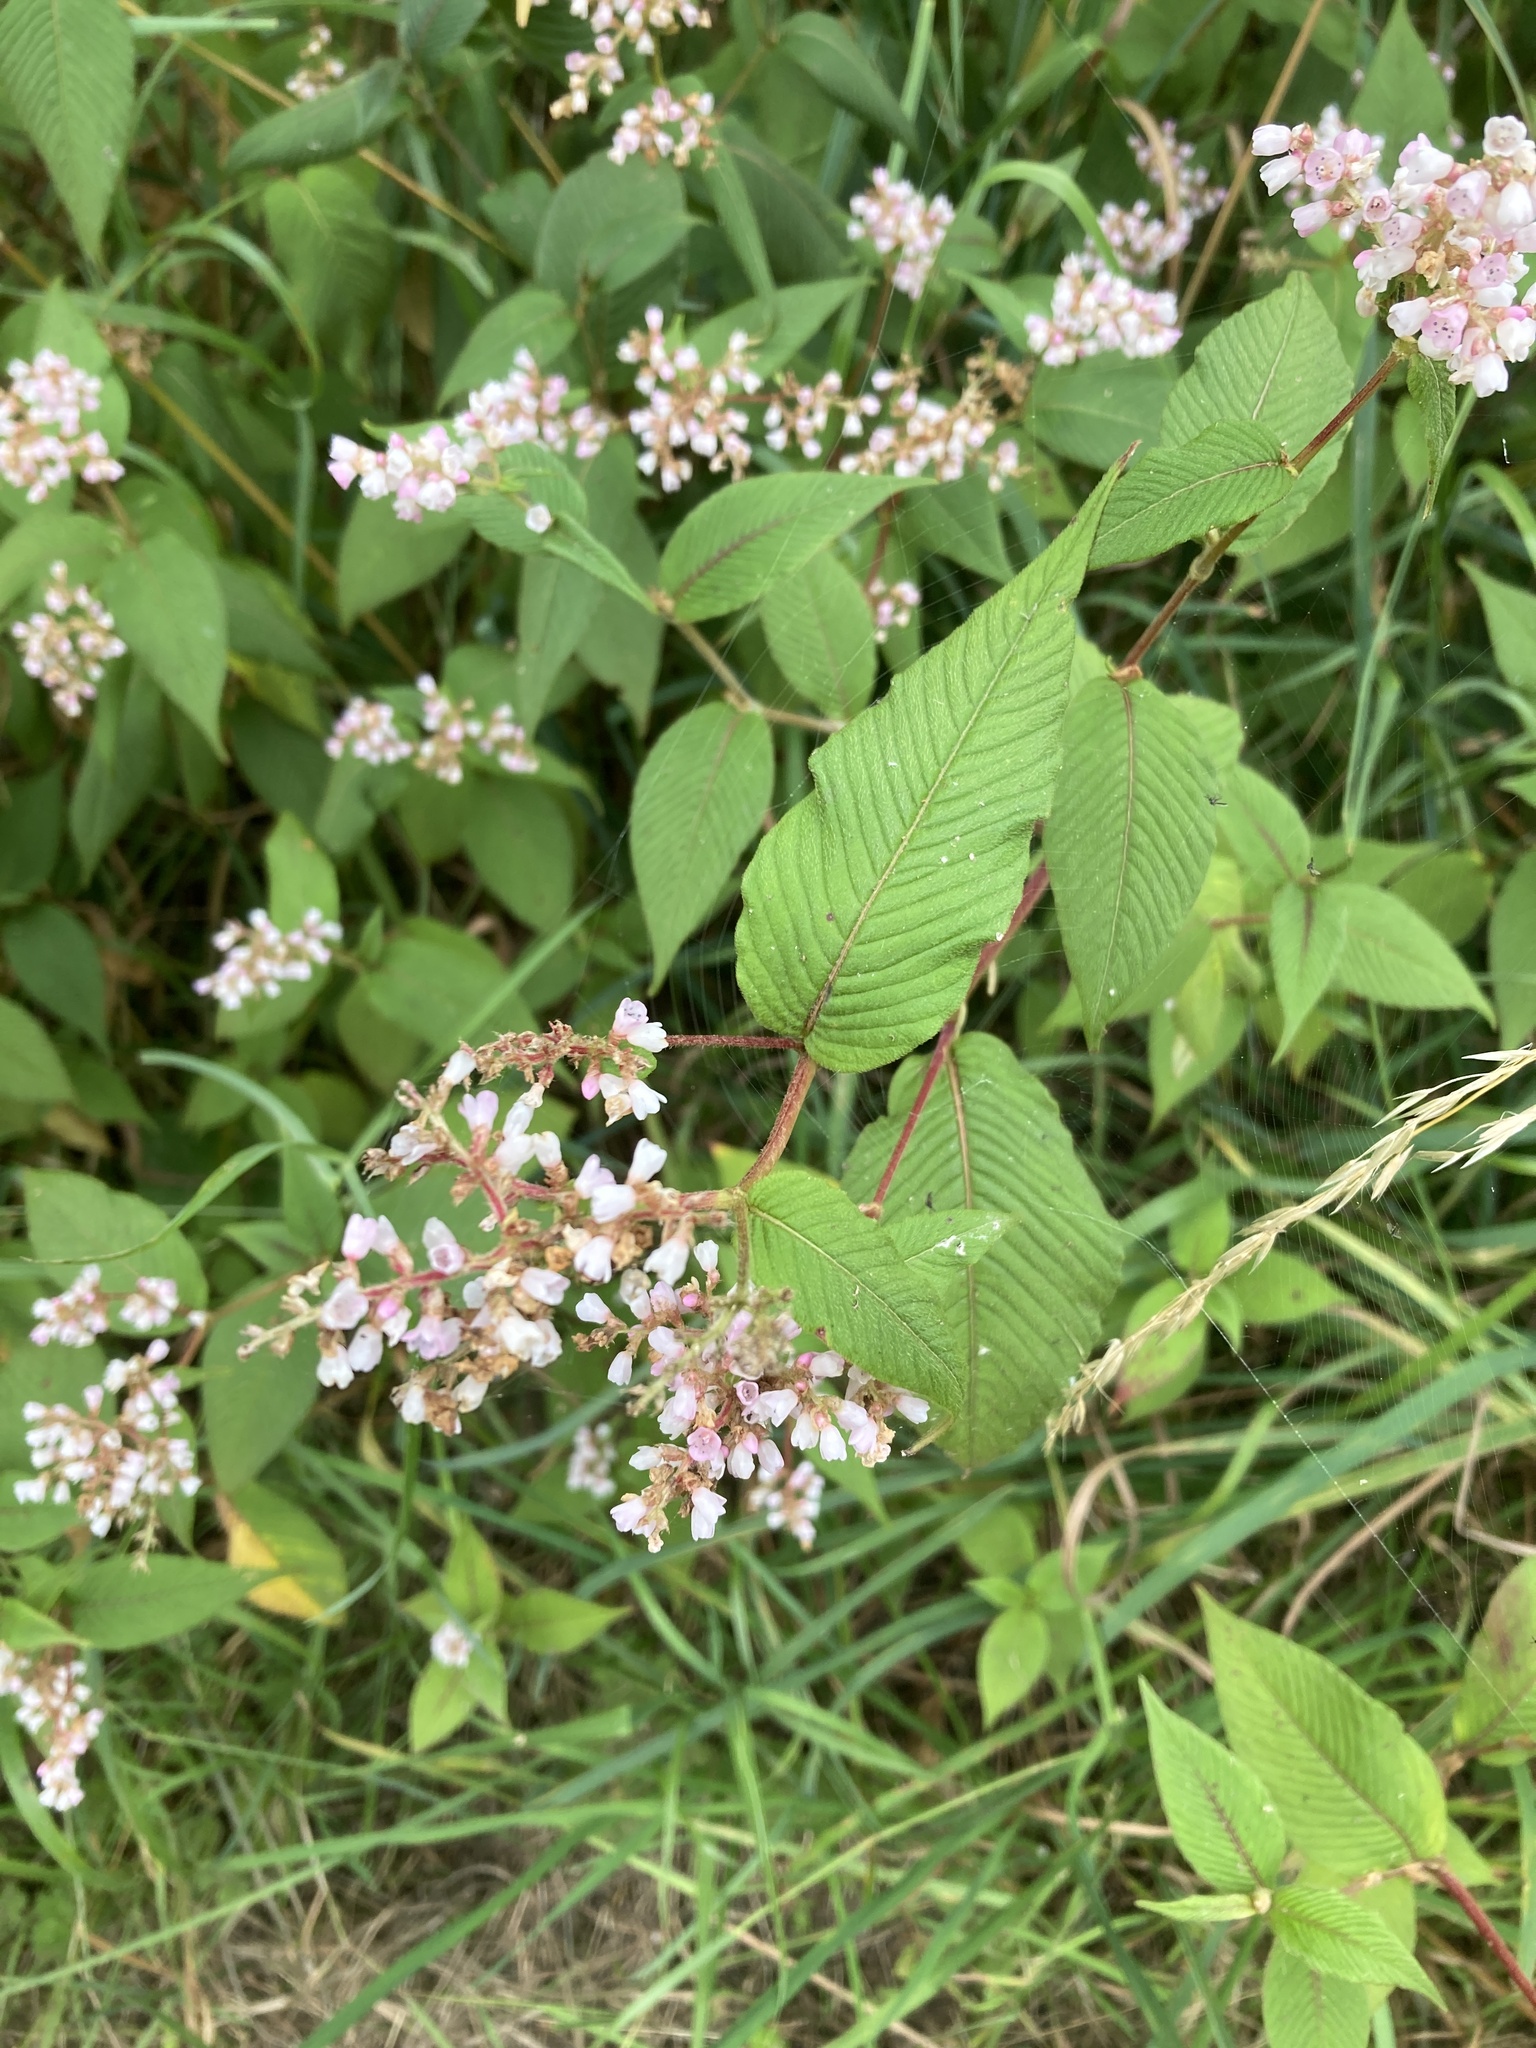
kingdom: Plantae
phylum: Tracheophyta
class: Magnoliopsida
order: Caryophyllales
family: Polygonaceae
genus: Koenigia
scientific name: Koenigia campanulata
